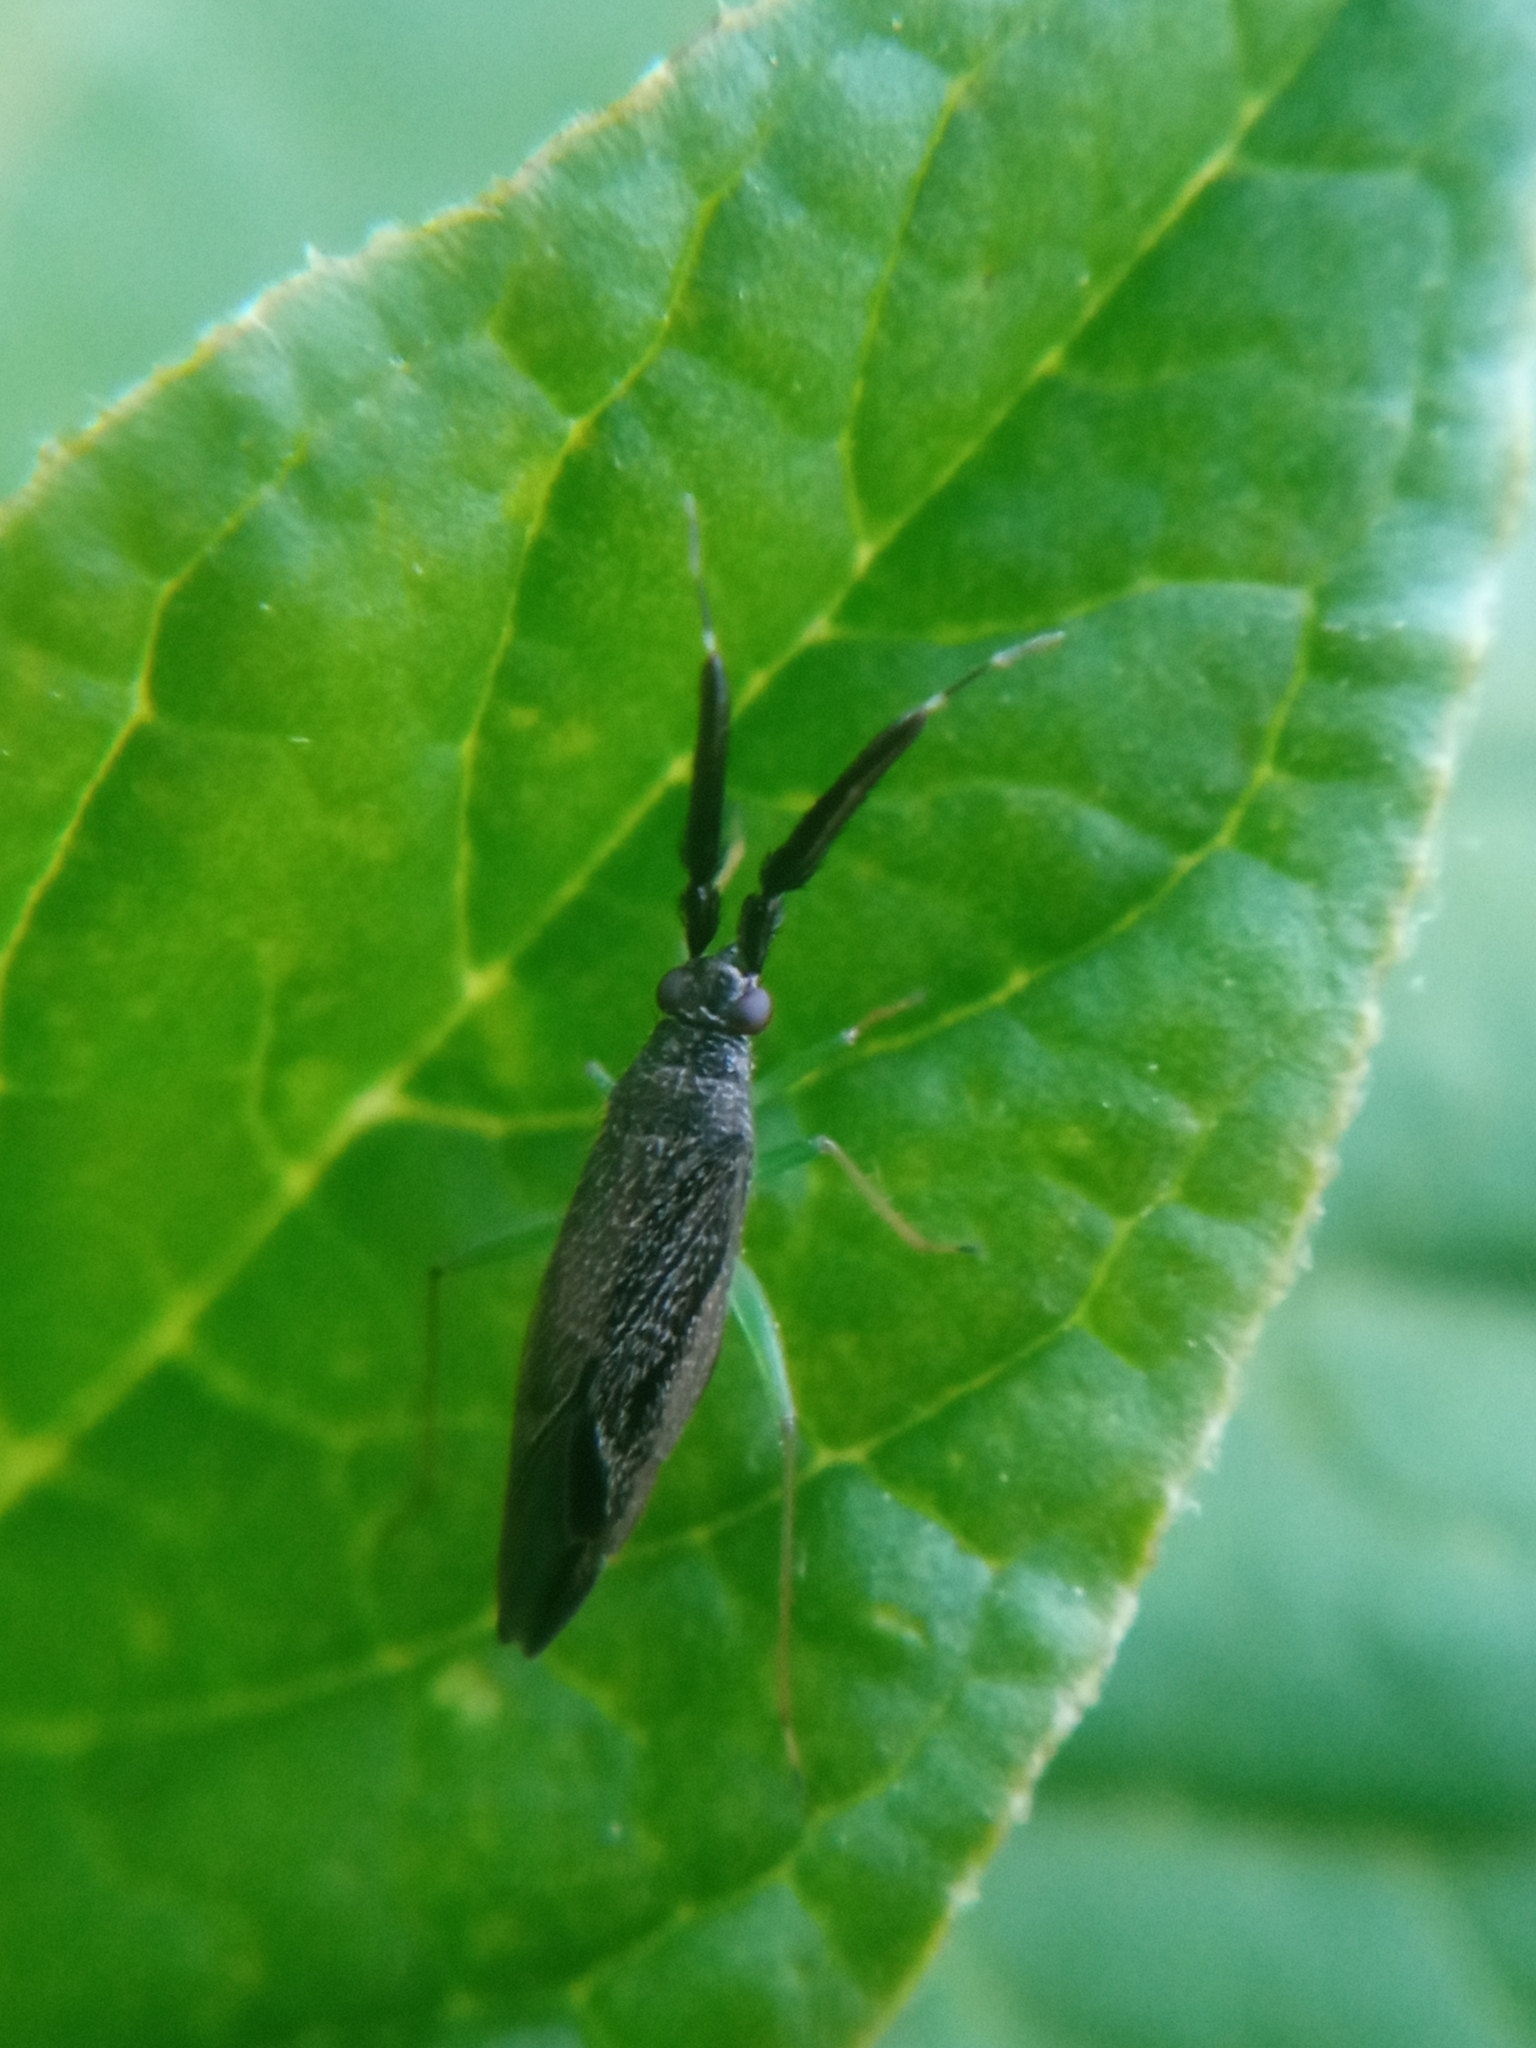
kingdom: Animalia
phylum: Arthropoda
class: Insecta
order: Hemiptera
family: Miridae
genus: Heterotoma
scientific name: Heterotoma planicornis
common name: Plant bug
